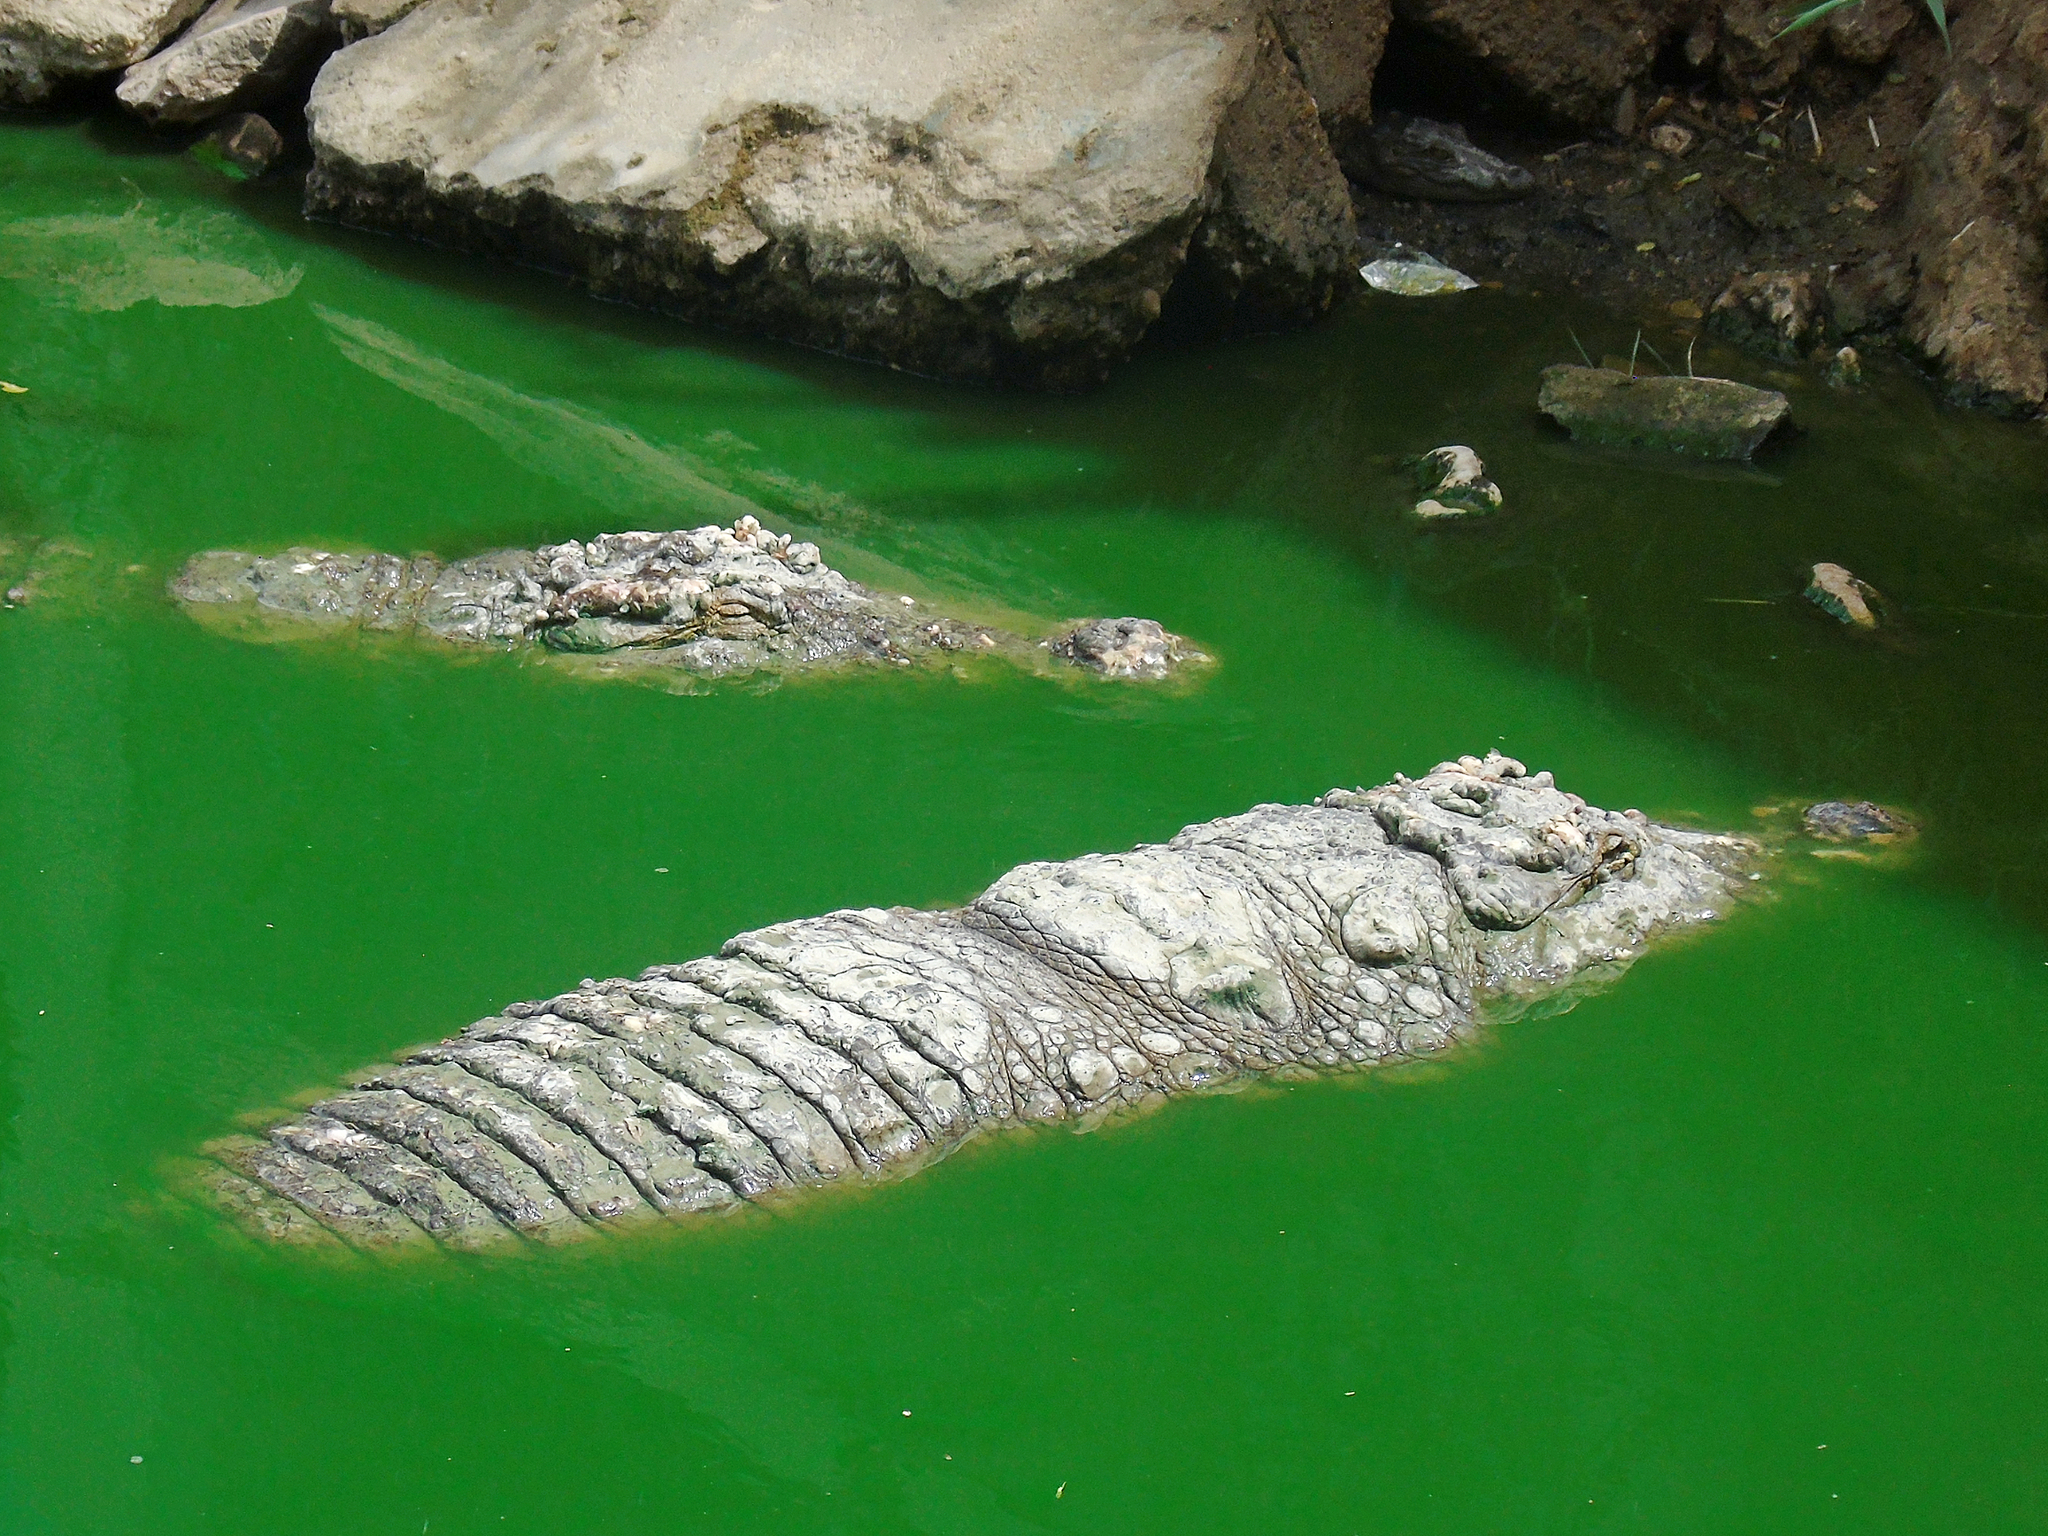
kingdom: Animalia
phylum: Chordata
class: Crocodylia
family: Crocodylidae
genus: Crocodylus
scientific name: Crocodylus palustris
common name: Mugger crocodile
